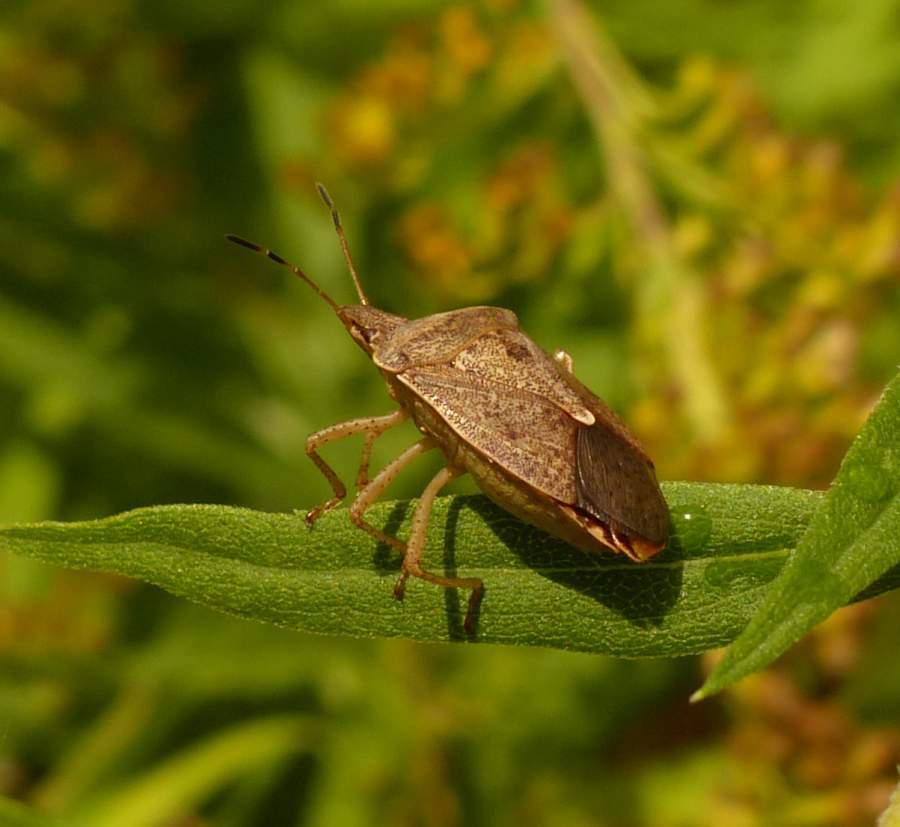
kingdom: Animalia
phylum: Arthropoda
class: Insecta
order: Hemiptera
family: Pentatomidae
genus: Euschistus
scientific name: Euschistus servus
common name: Brown stink bug
